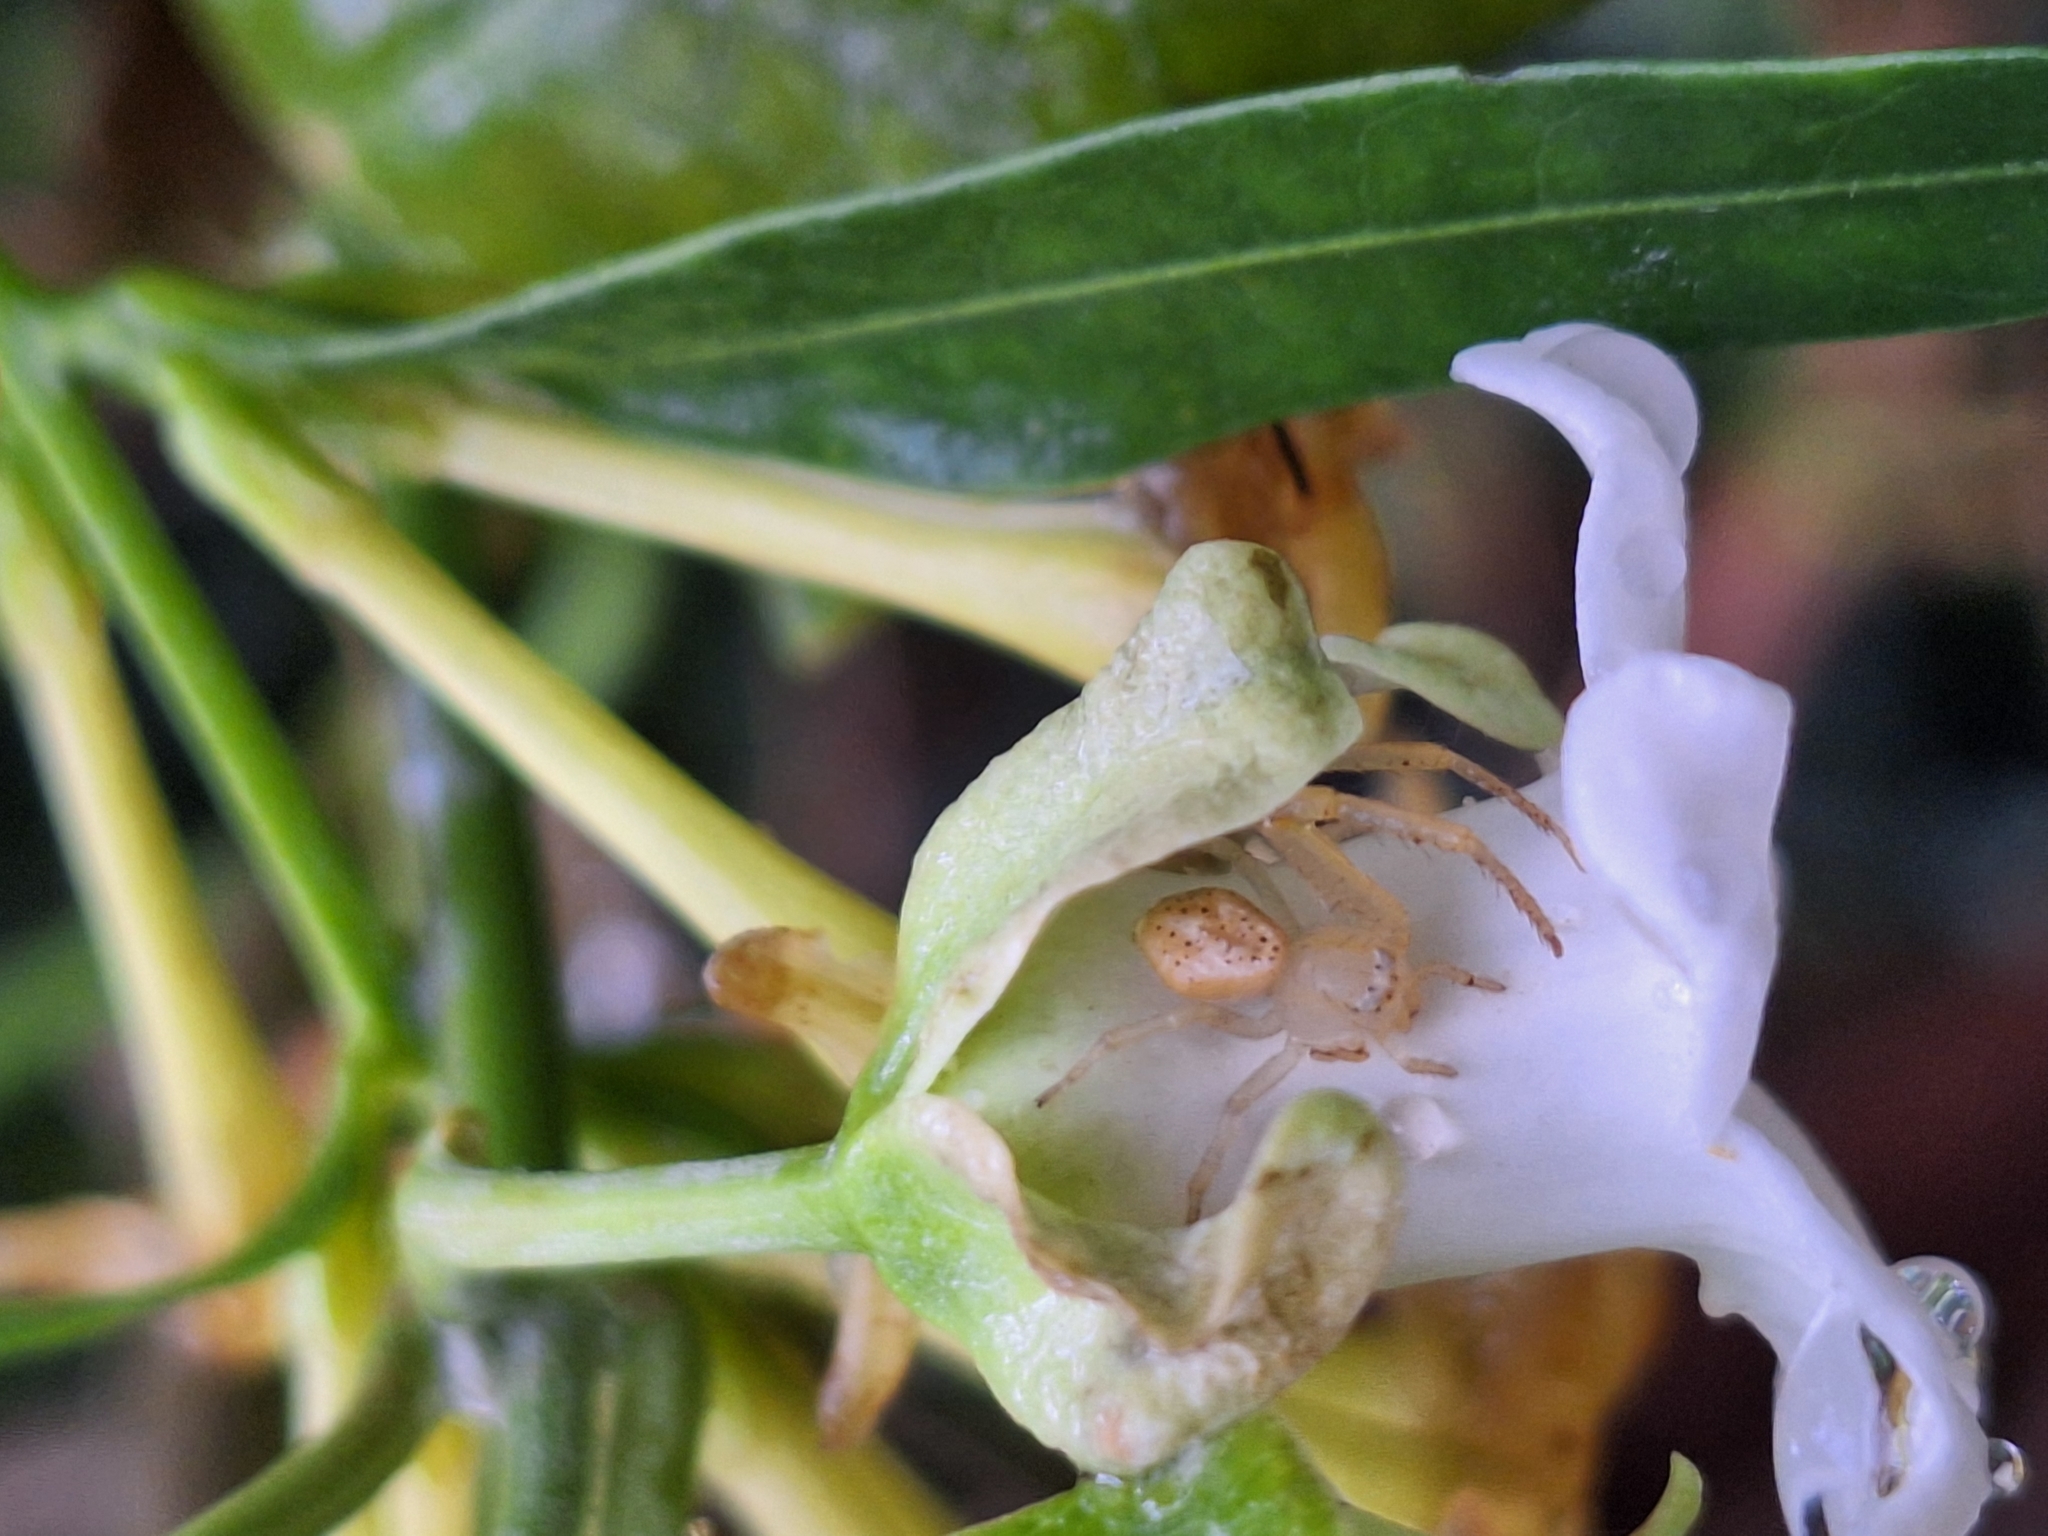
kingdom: Animalia
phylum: Arthropoda
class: Arachnida
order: Araneae
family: Thomisidae
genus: Misumenops
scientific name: Misumenops
